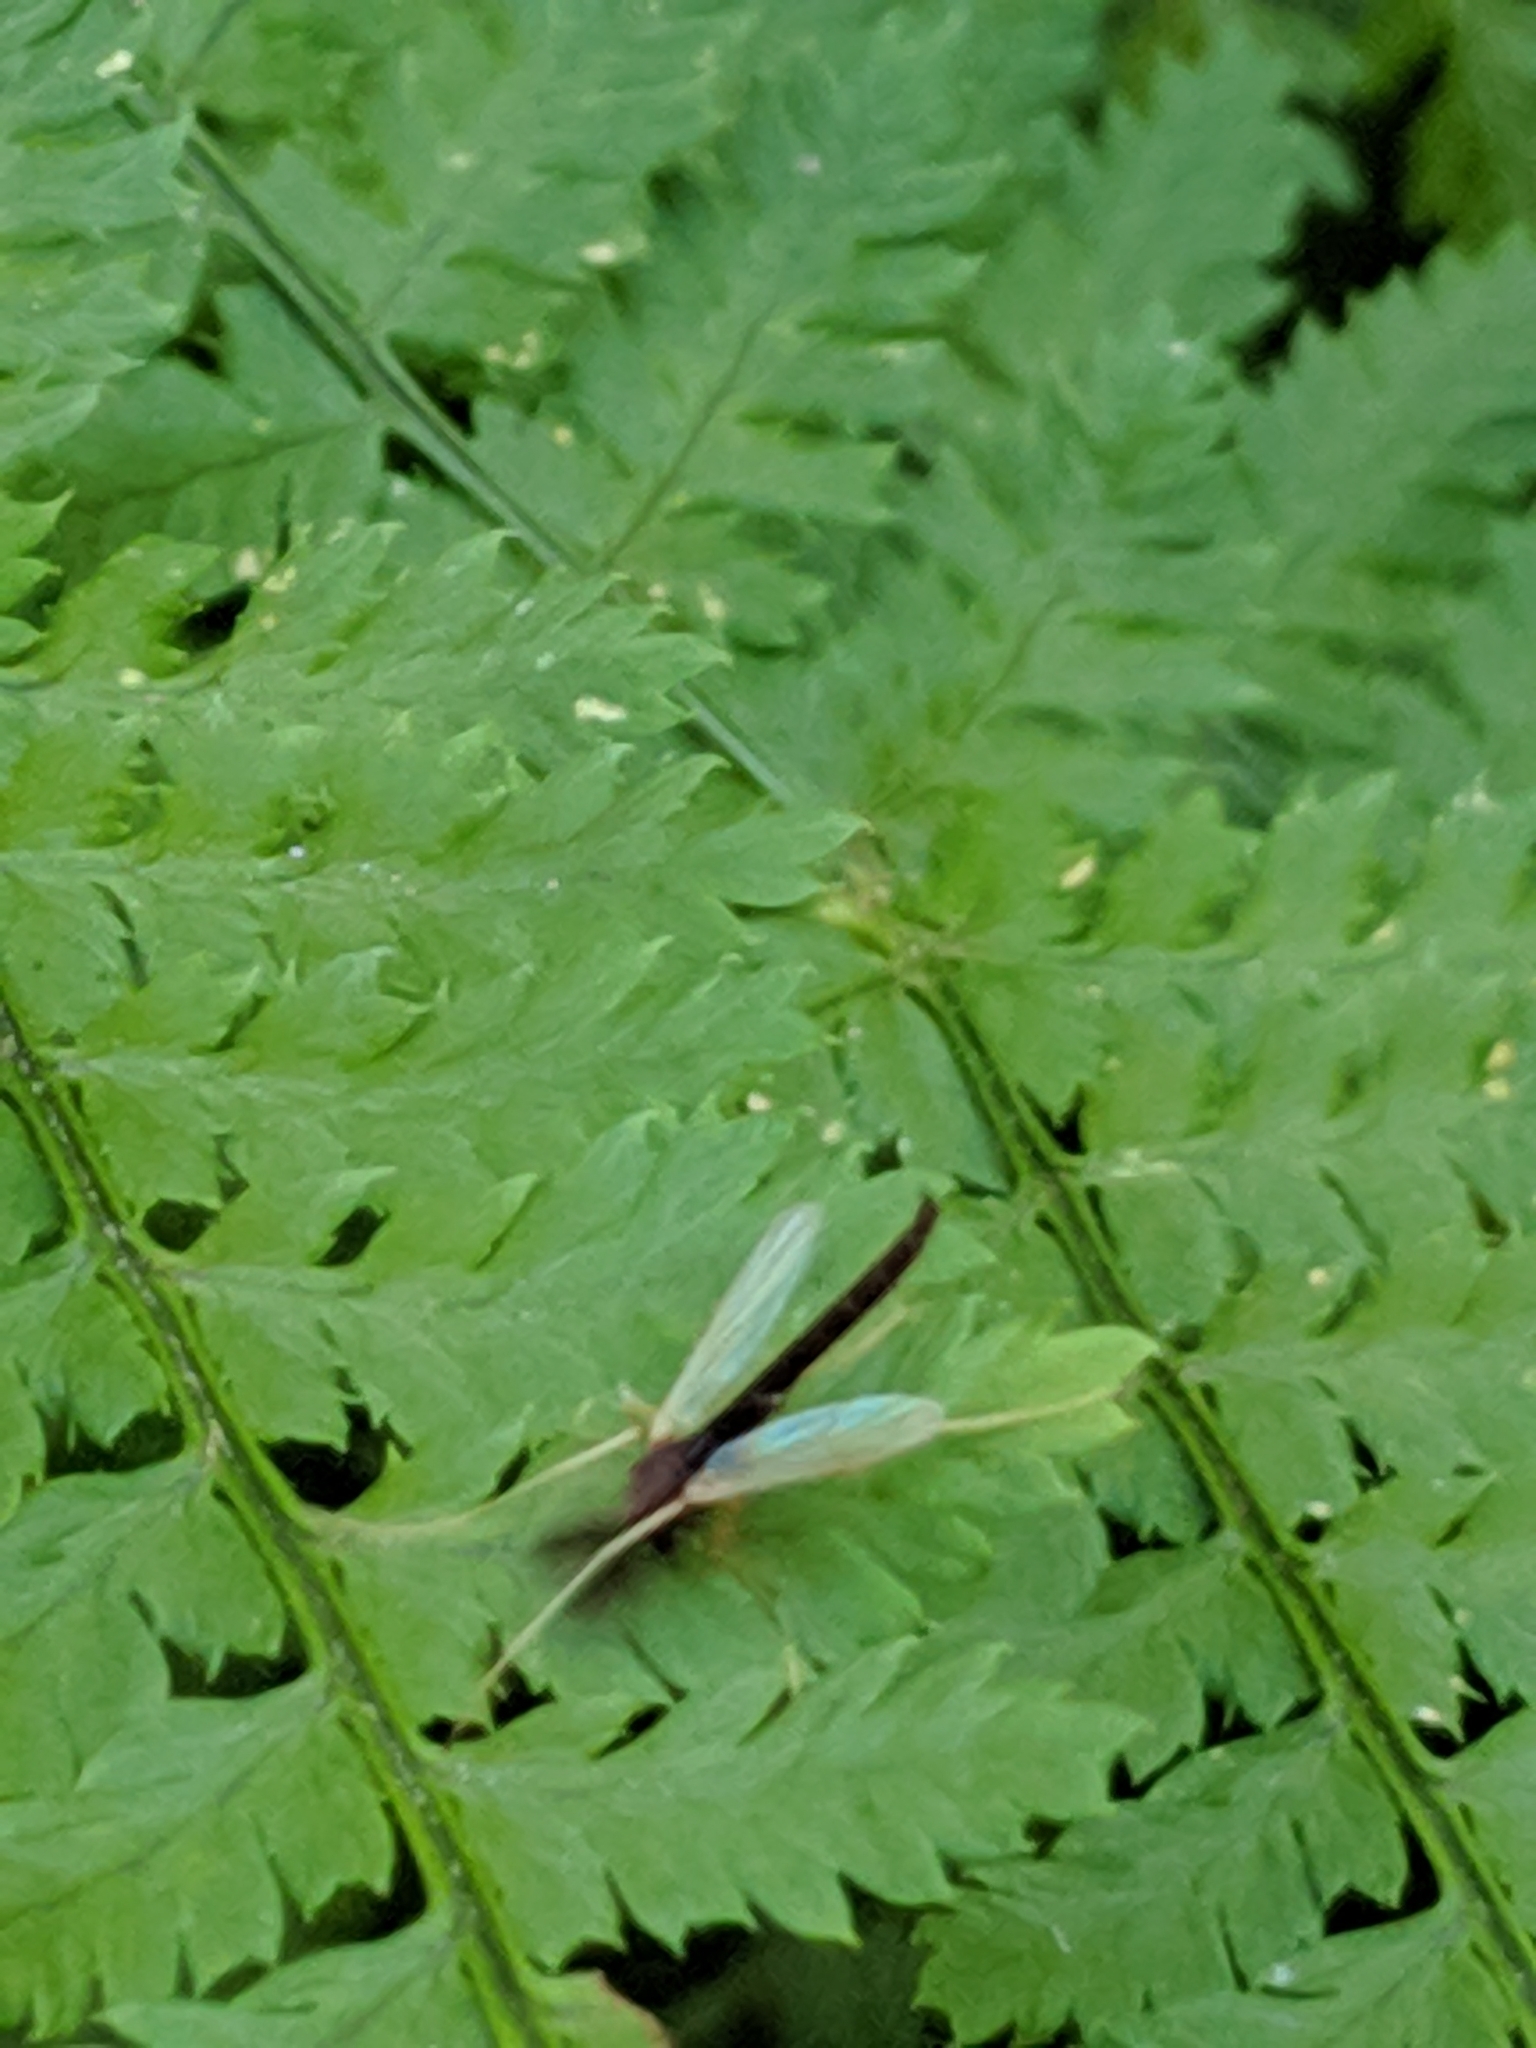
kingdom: Animalia
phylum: Arthropoda
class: Insecta
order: Diptera
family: Chironomidae
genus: Hyporhygma
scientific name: Hyporhygma quadripunctatus
